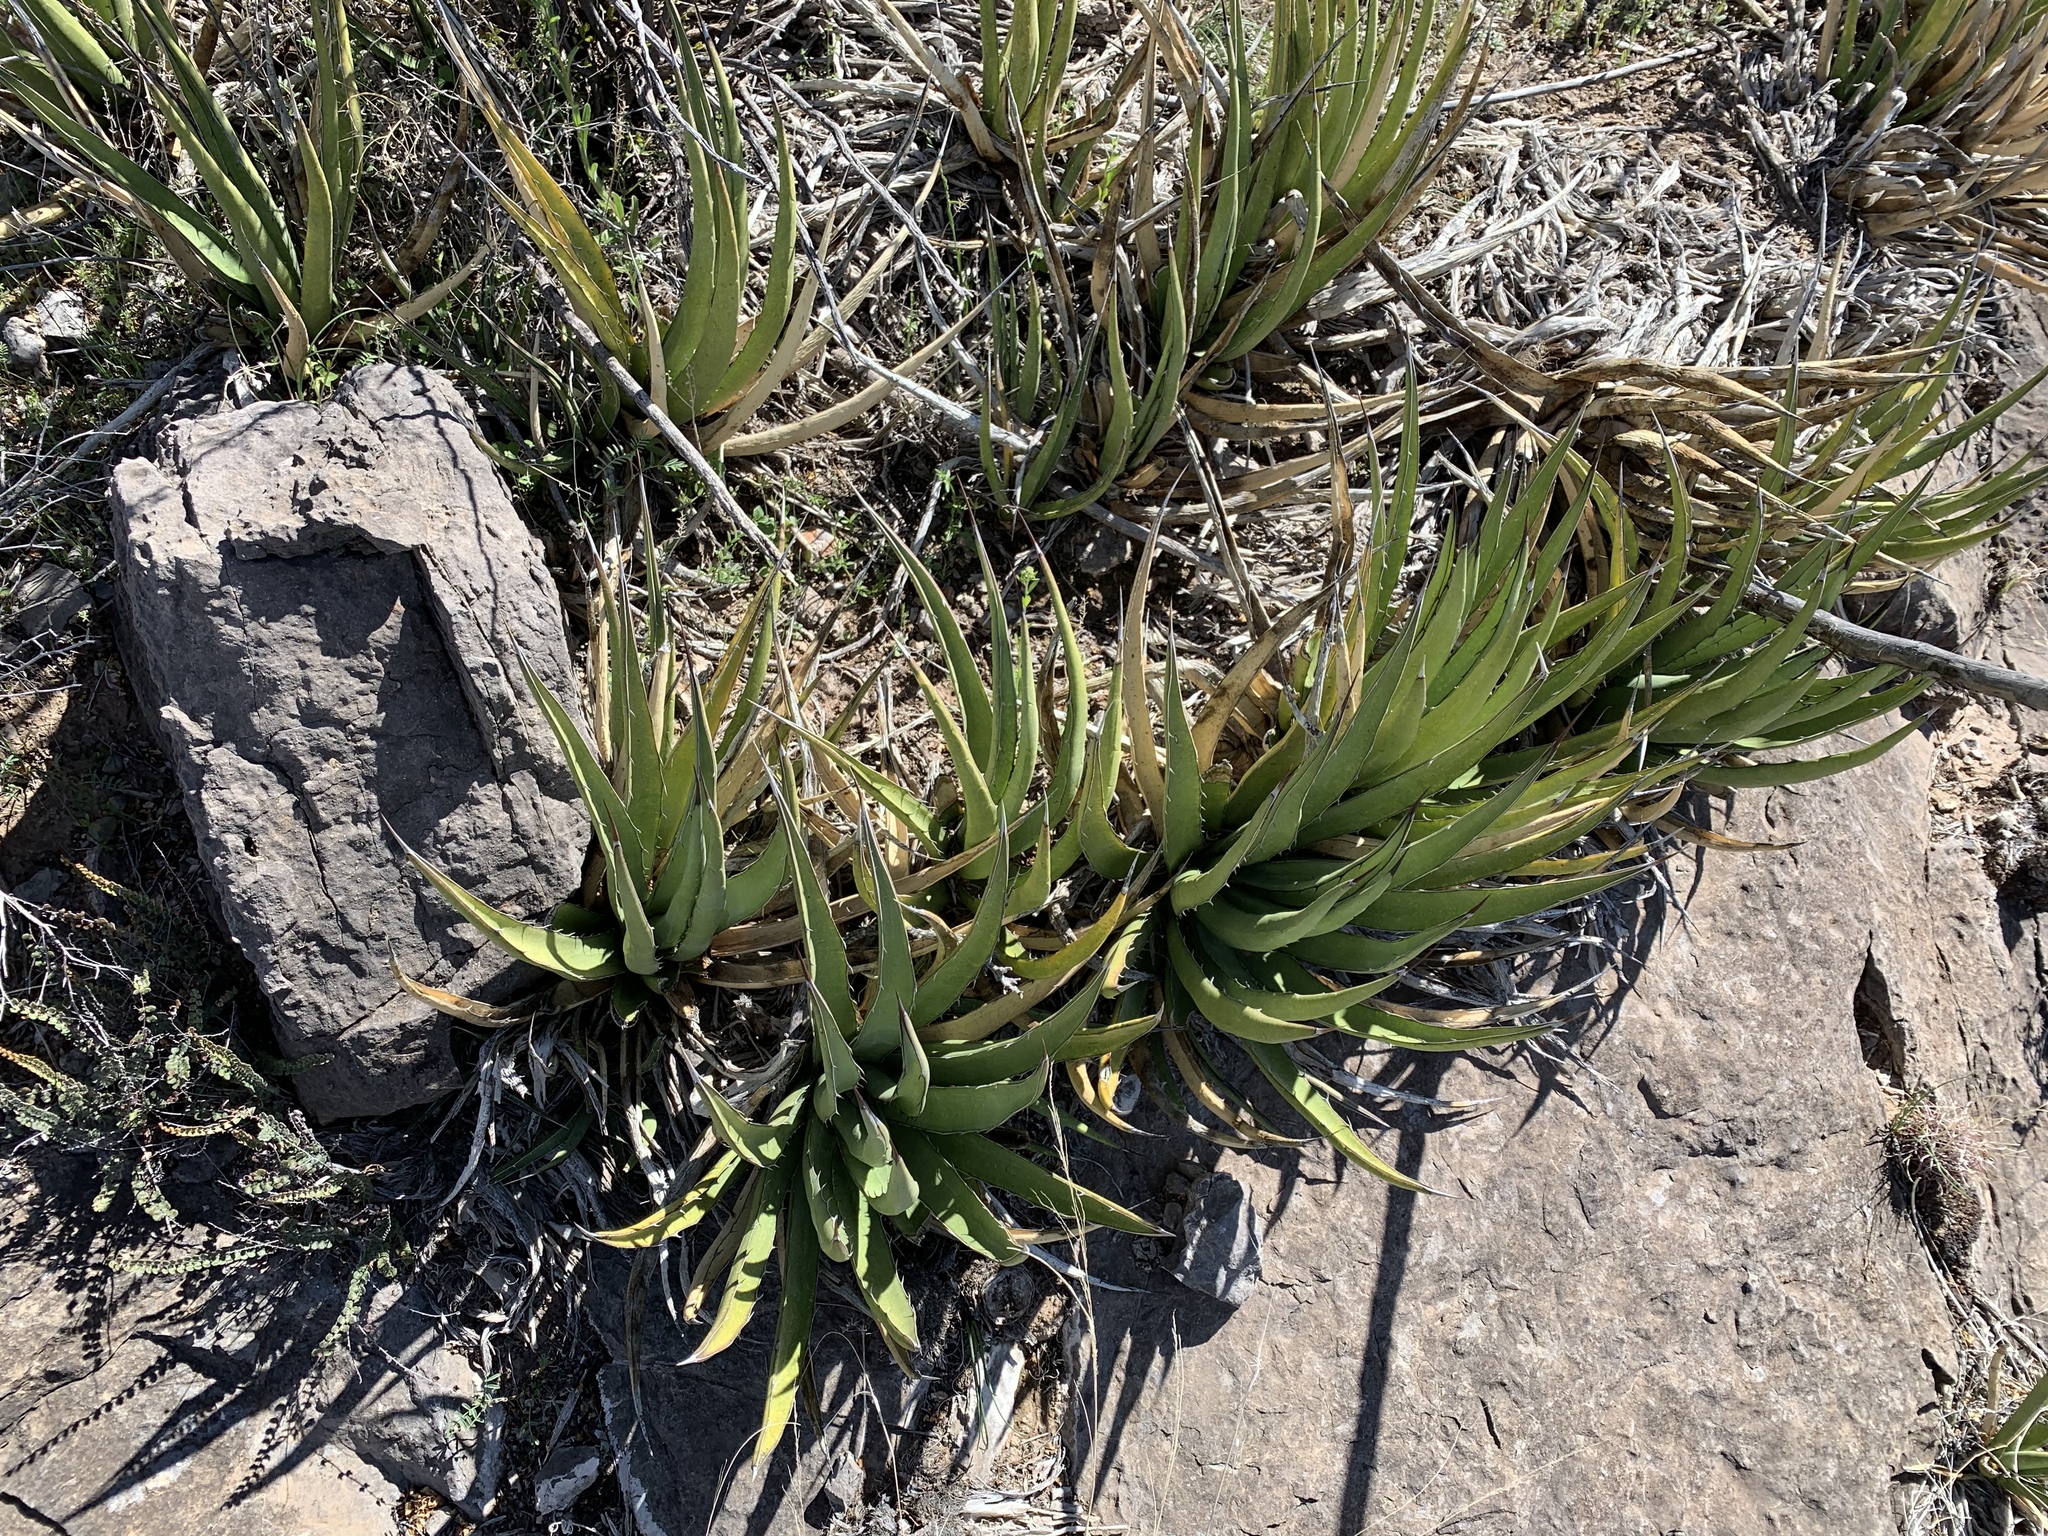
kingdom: Plantae
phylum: Tracheophyta
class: Liliopsida
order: Asparagales
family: Asparagaceae
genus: Agave
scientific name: Agave lechuguilla
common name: Lecheguilla agave
